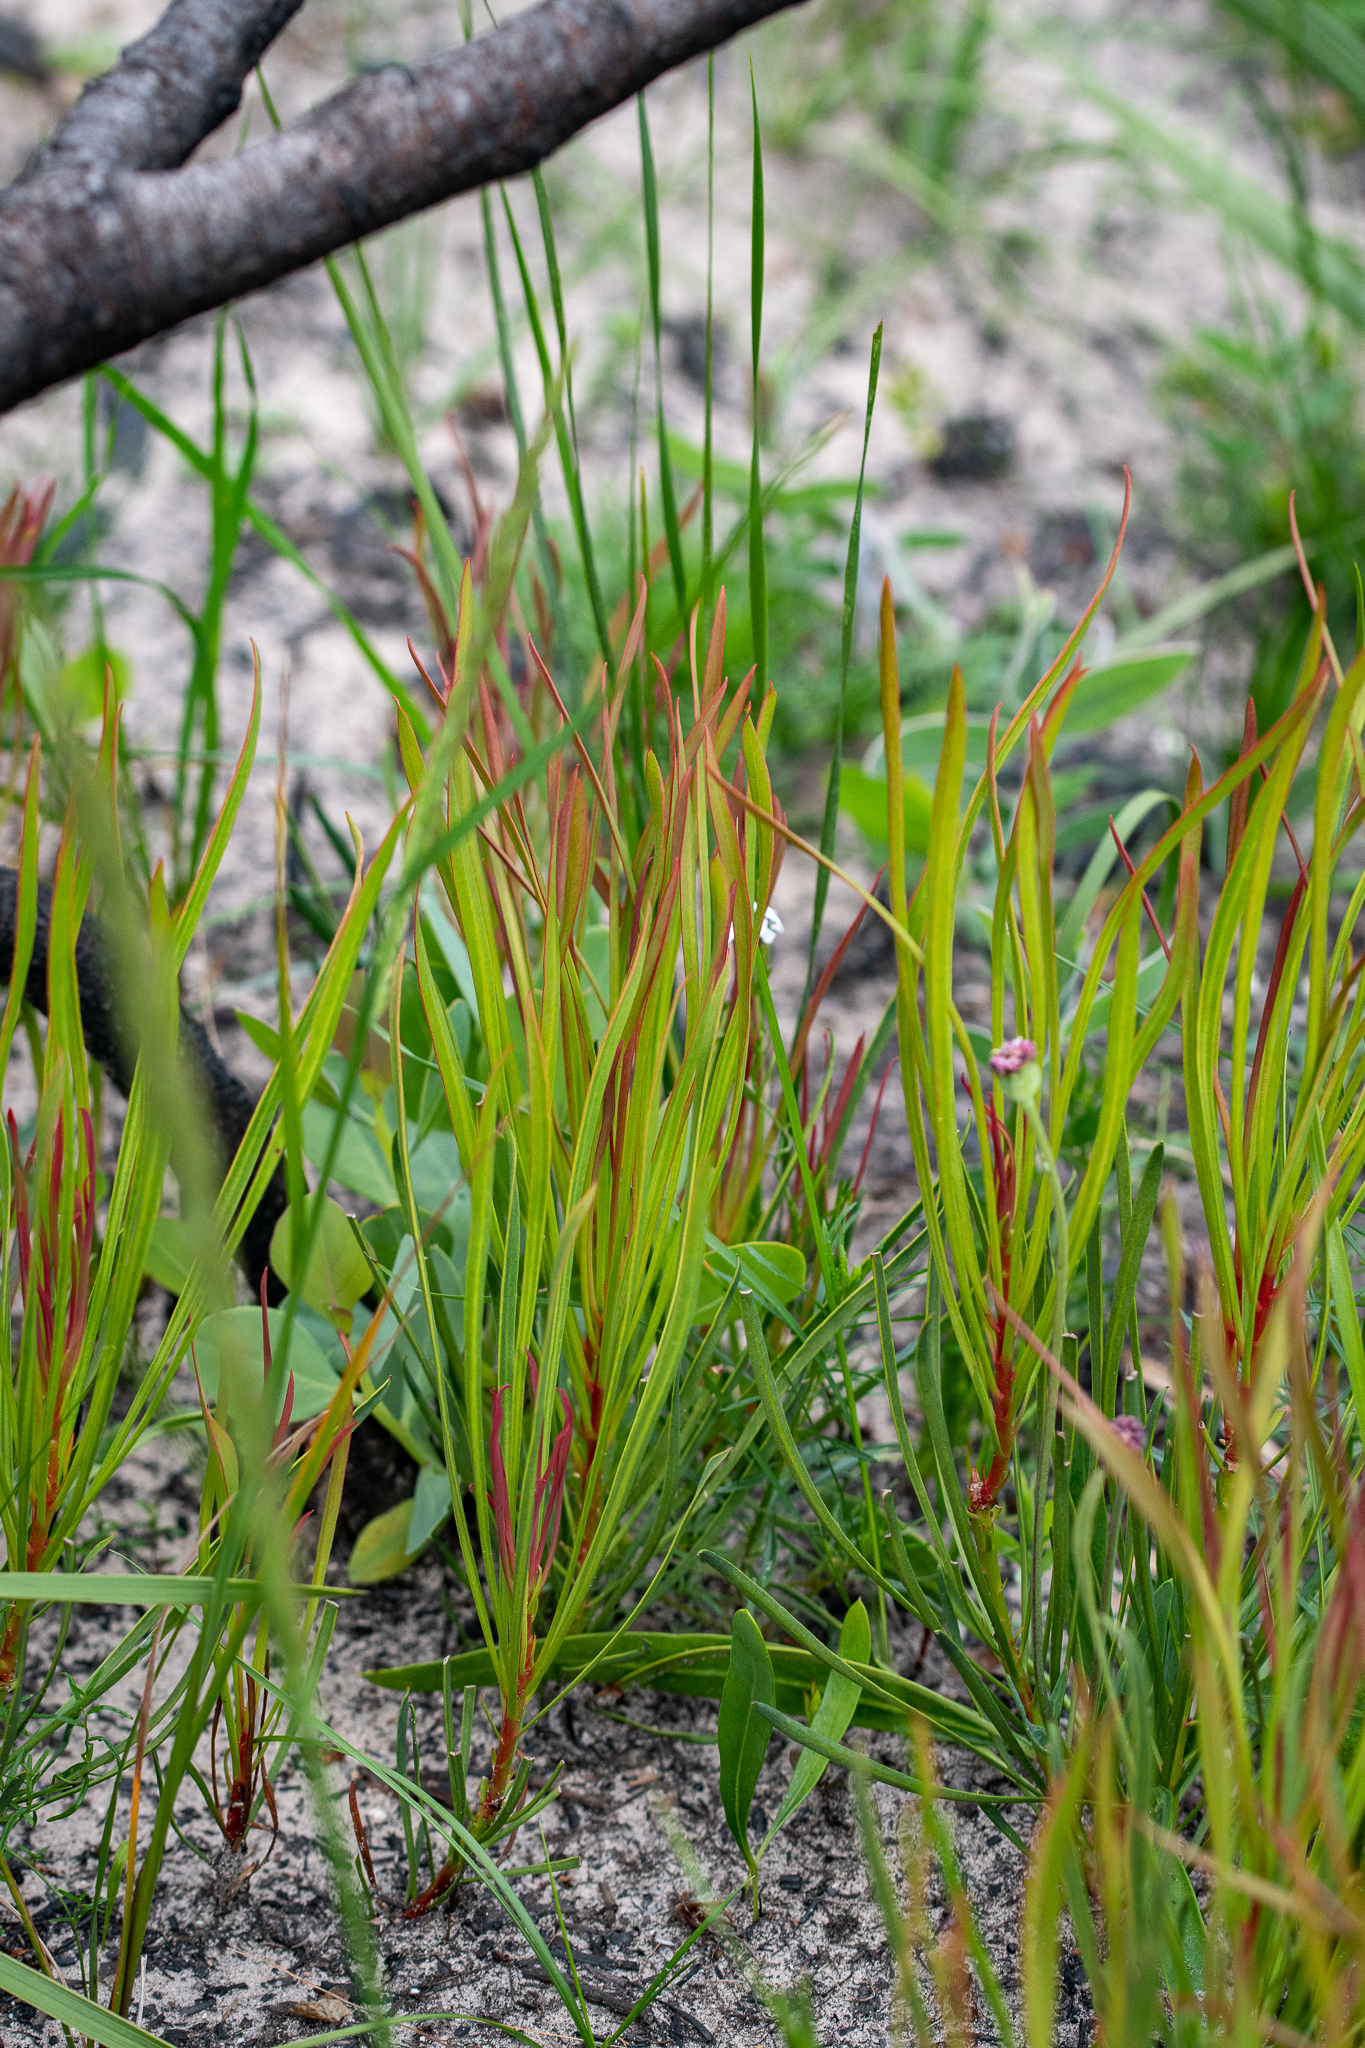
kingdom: Plantae
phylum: Tracheophyta
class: Magnoliopsida
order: Proteales
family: Proteaceae
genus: Protea
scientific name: Protea angustata
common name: Kleinmond sugarbush
